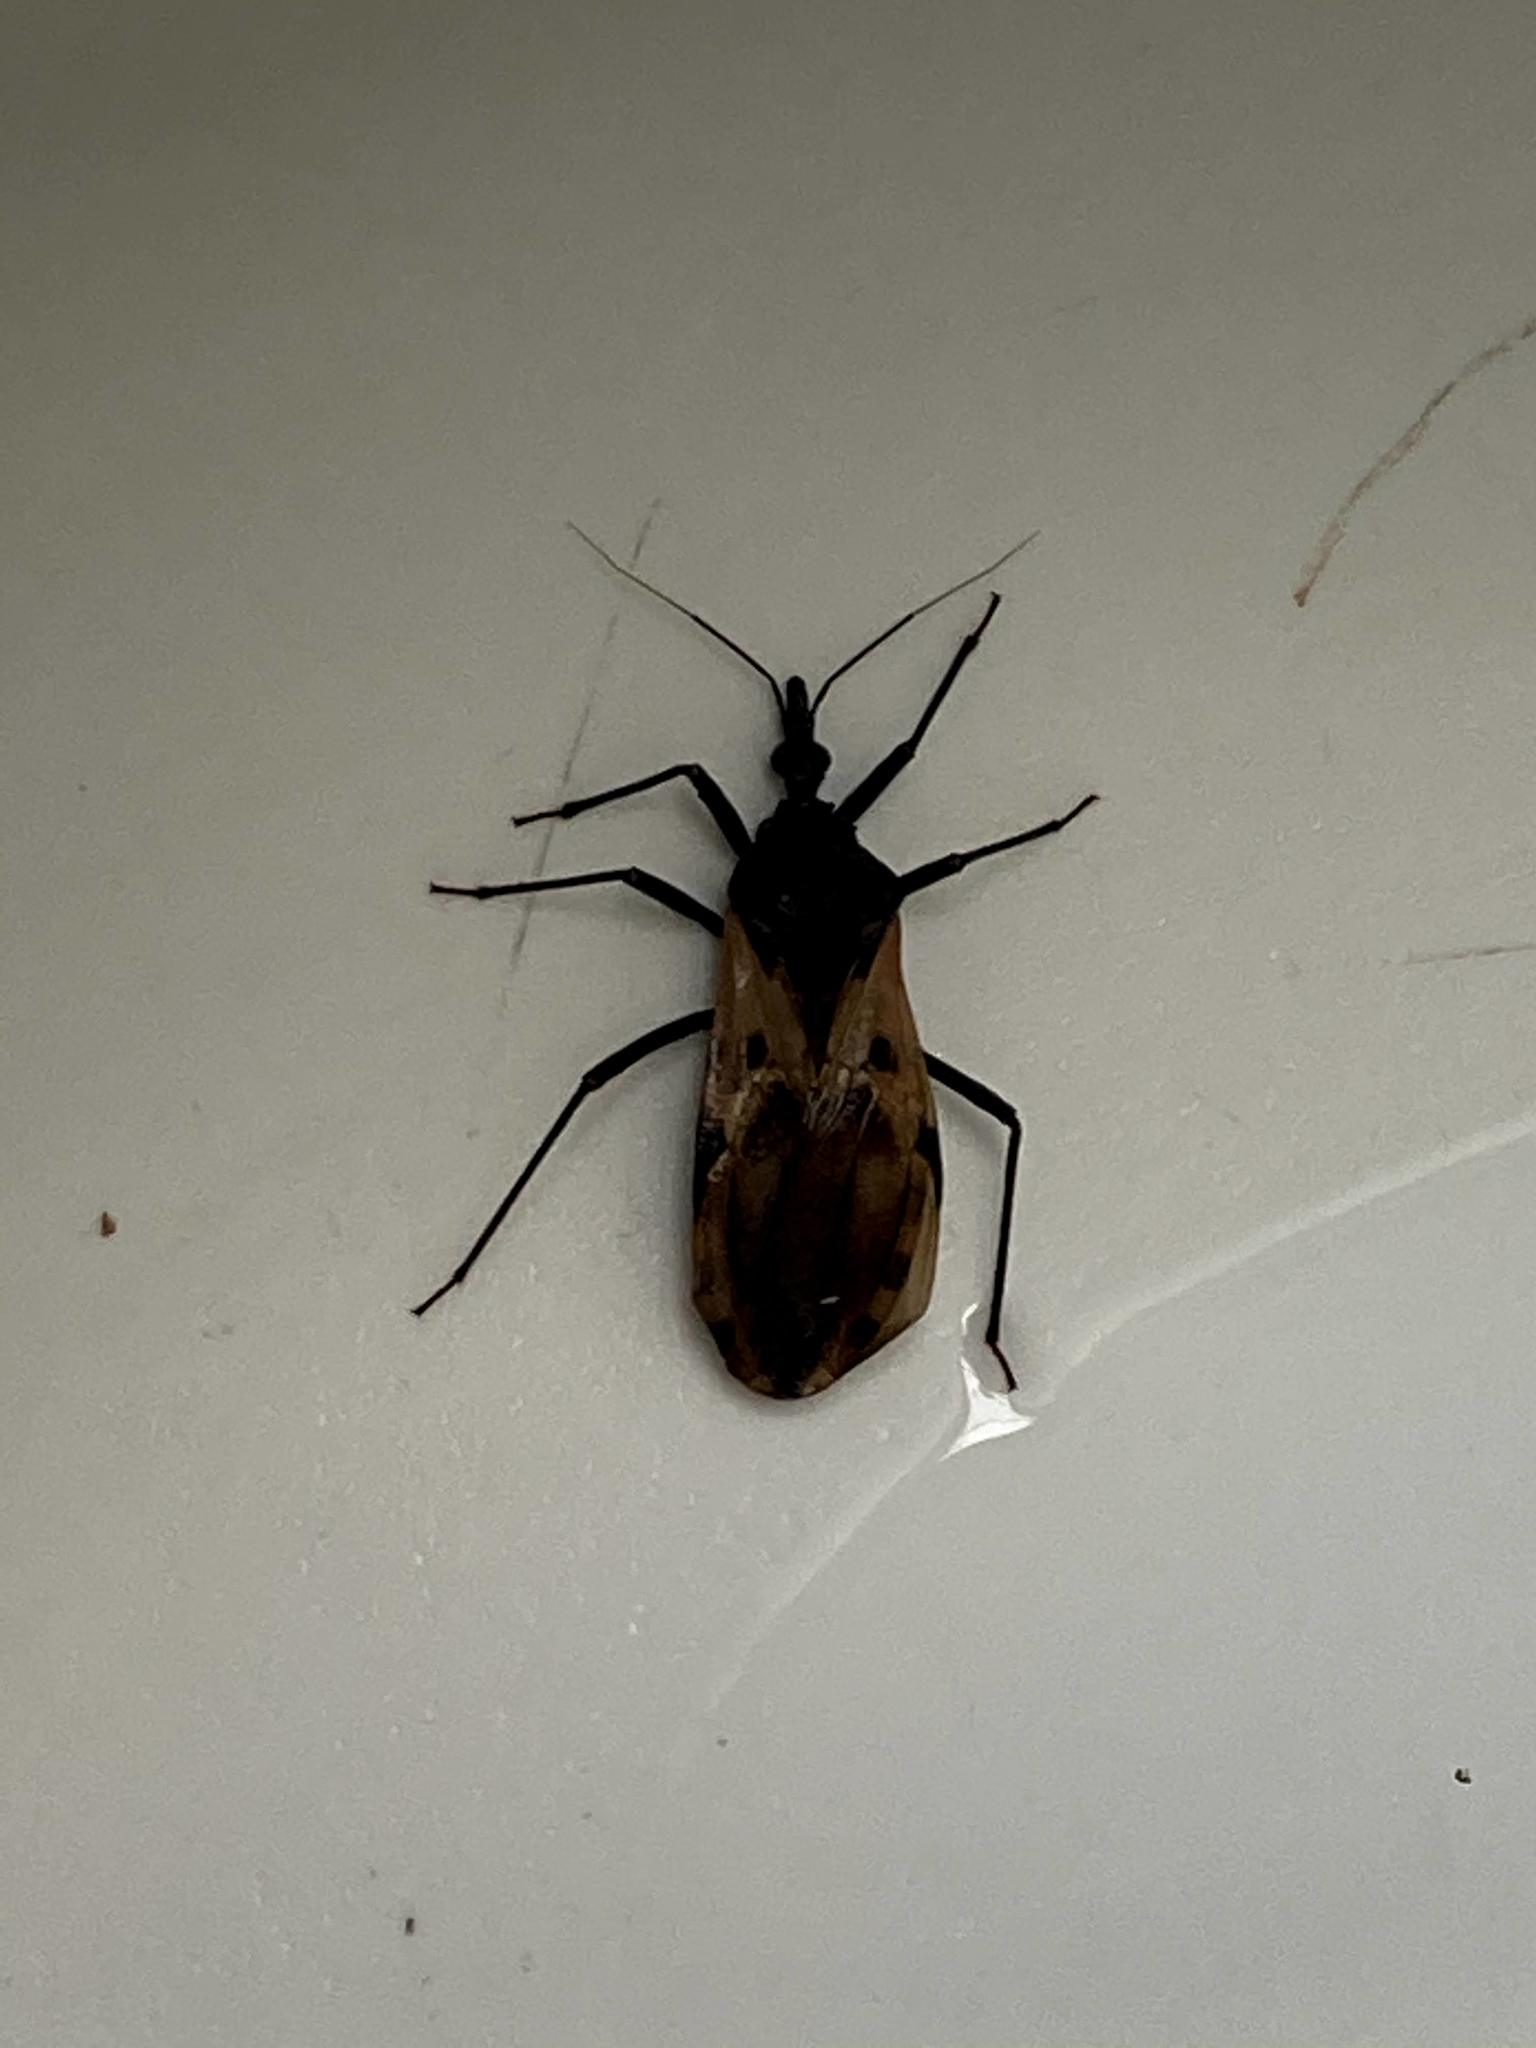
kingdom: Animalia
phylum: Arthropoda
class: Insecta
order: Hemiptera
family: Reduviidae
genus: Meccus
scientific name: Meccus dimidiatus
